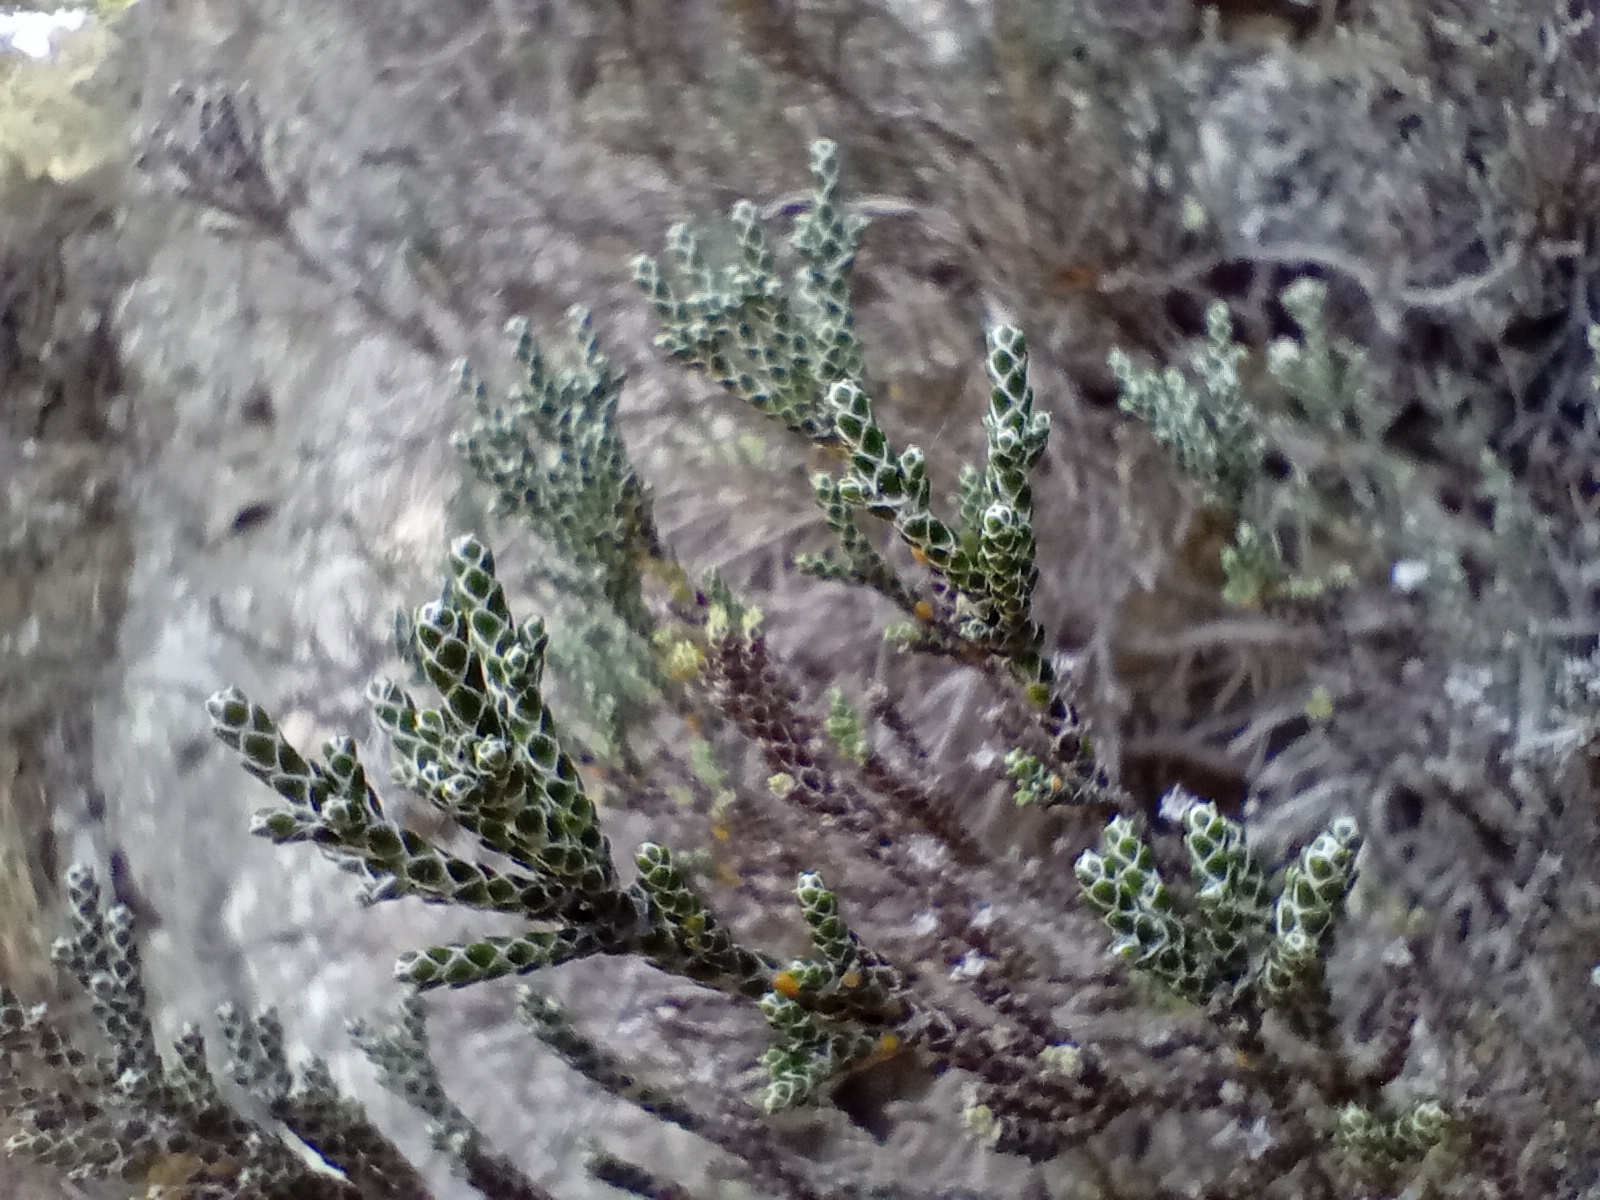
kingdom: Plantae
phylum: Tracheophyta
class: Magnoliopsida
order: Asterales
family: Asteraceae
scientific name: Asteraceae
